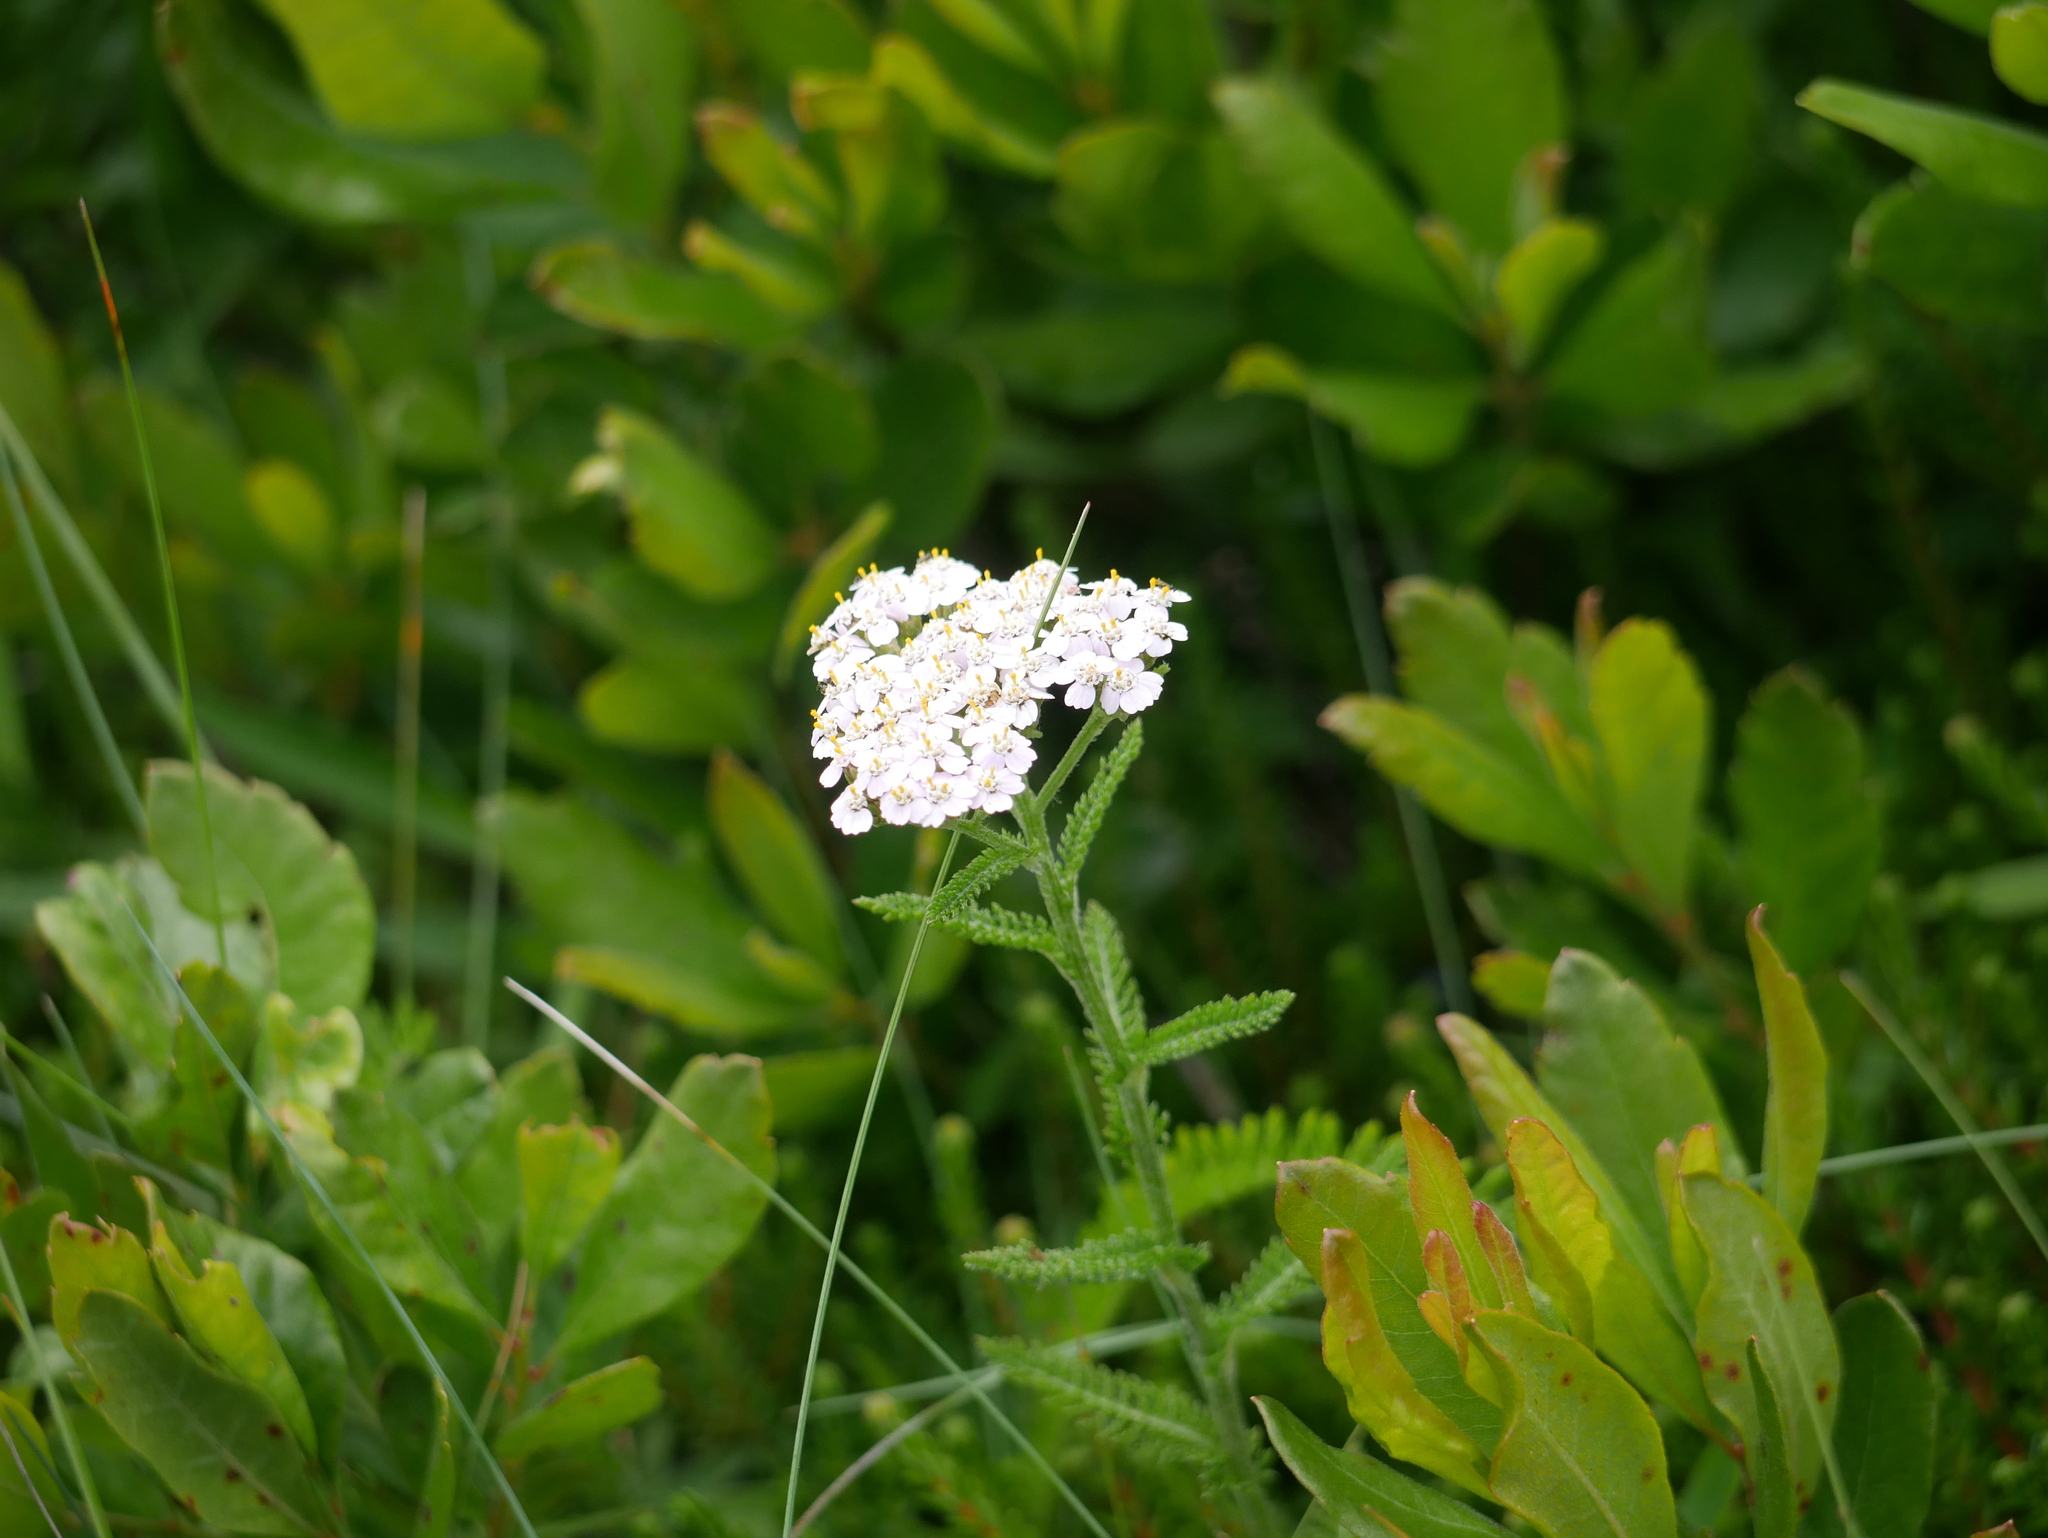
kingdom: Plantae
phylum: Tracheophyta
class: Magnoliopsida
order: Asterales
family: Asteraceae
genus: Achillea
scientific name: Achillea millefolium
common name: Yarrow
